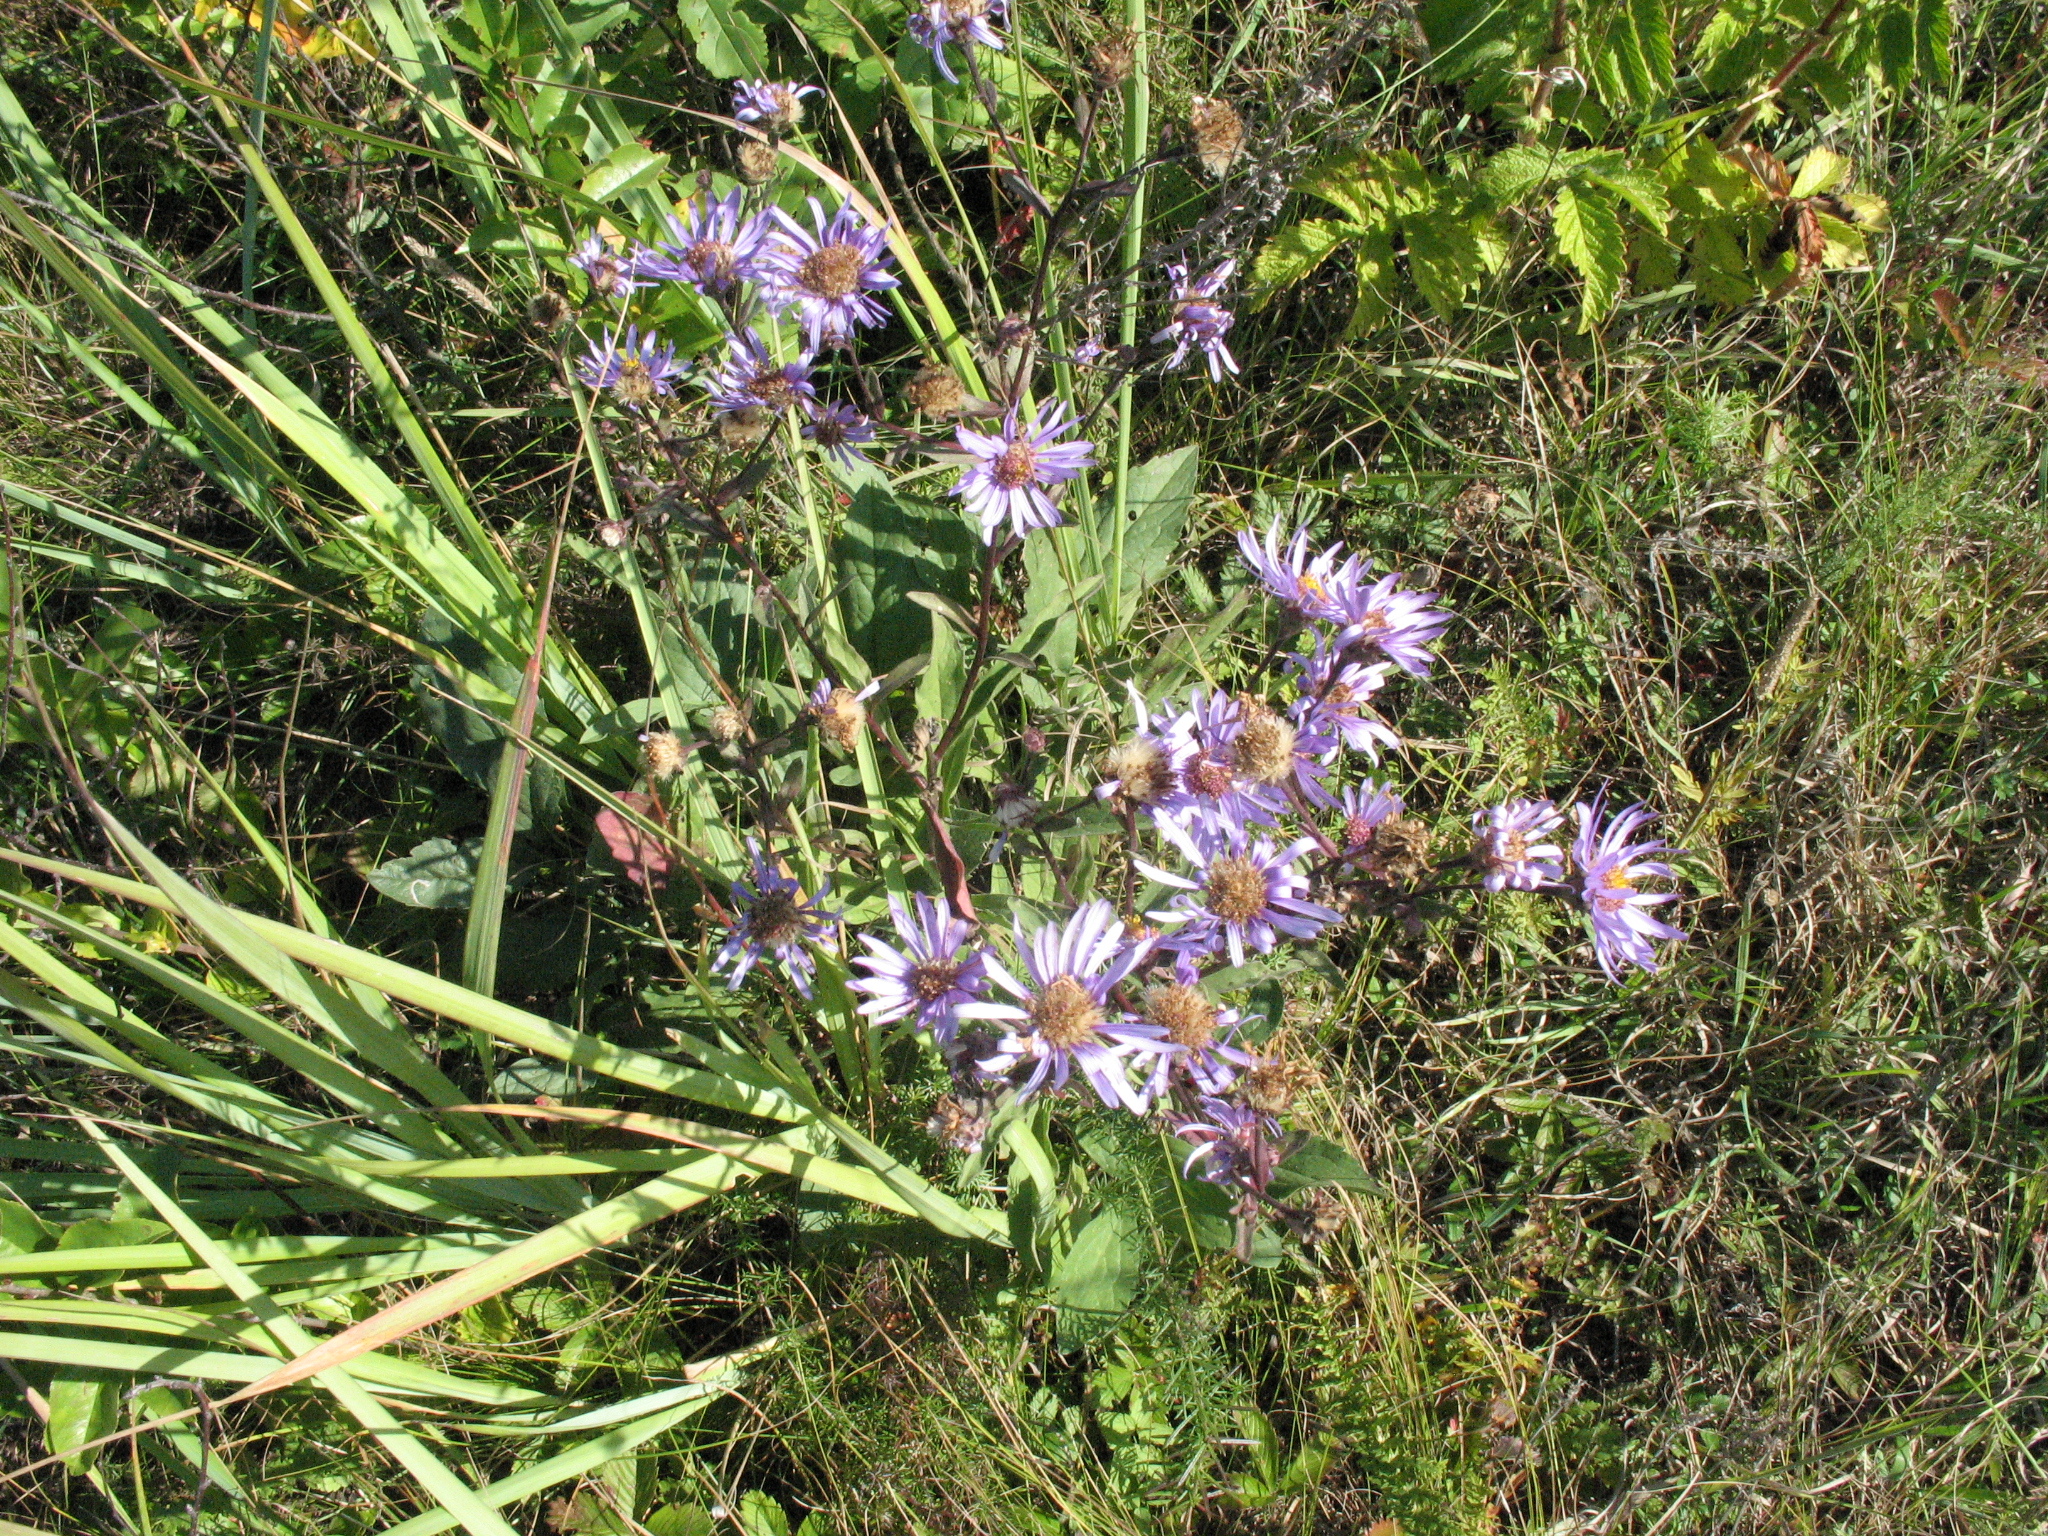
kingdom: Plantae
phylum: Tracheophyta
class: Magnoliopsida
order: Asterales
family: Asteraceae
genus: Aster
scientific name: Aster amellus
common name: European michaelmas daisy
